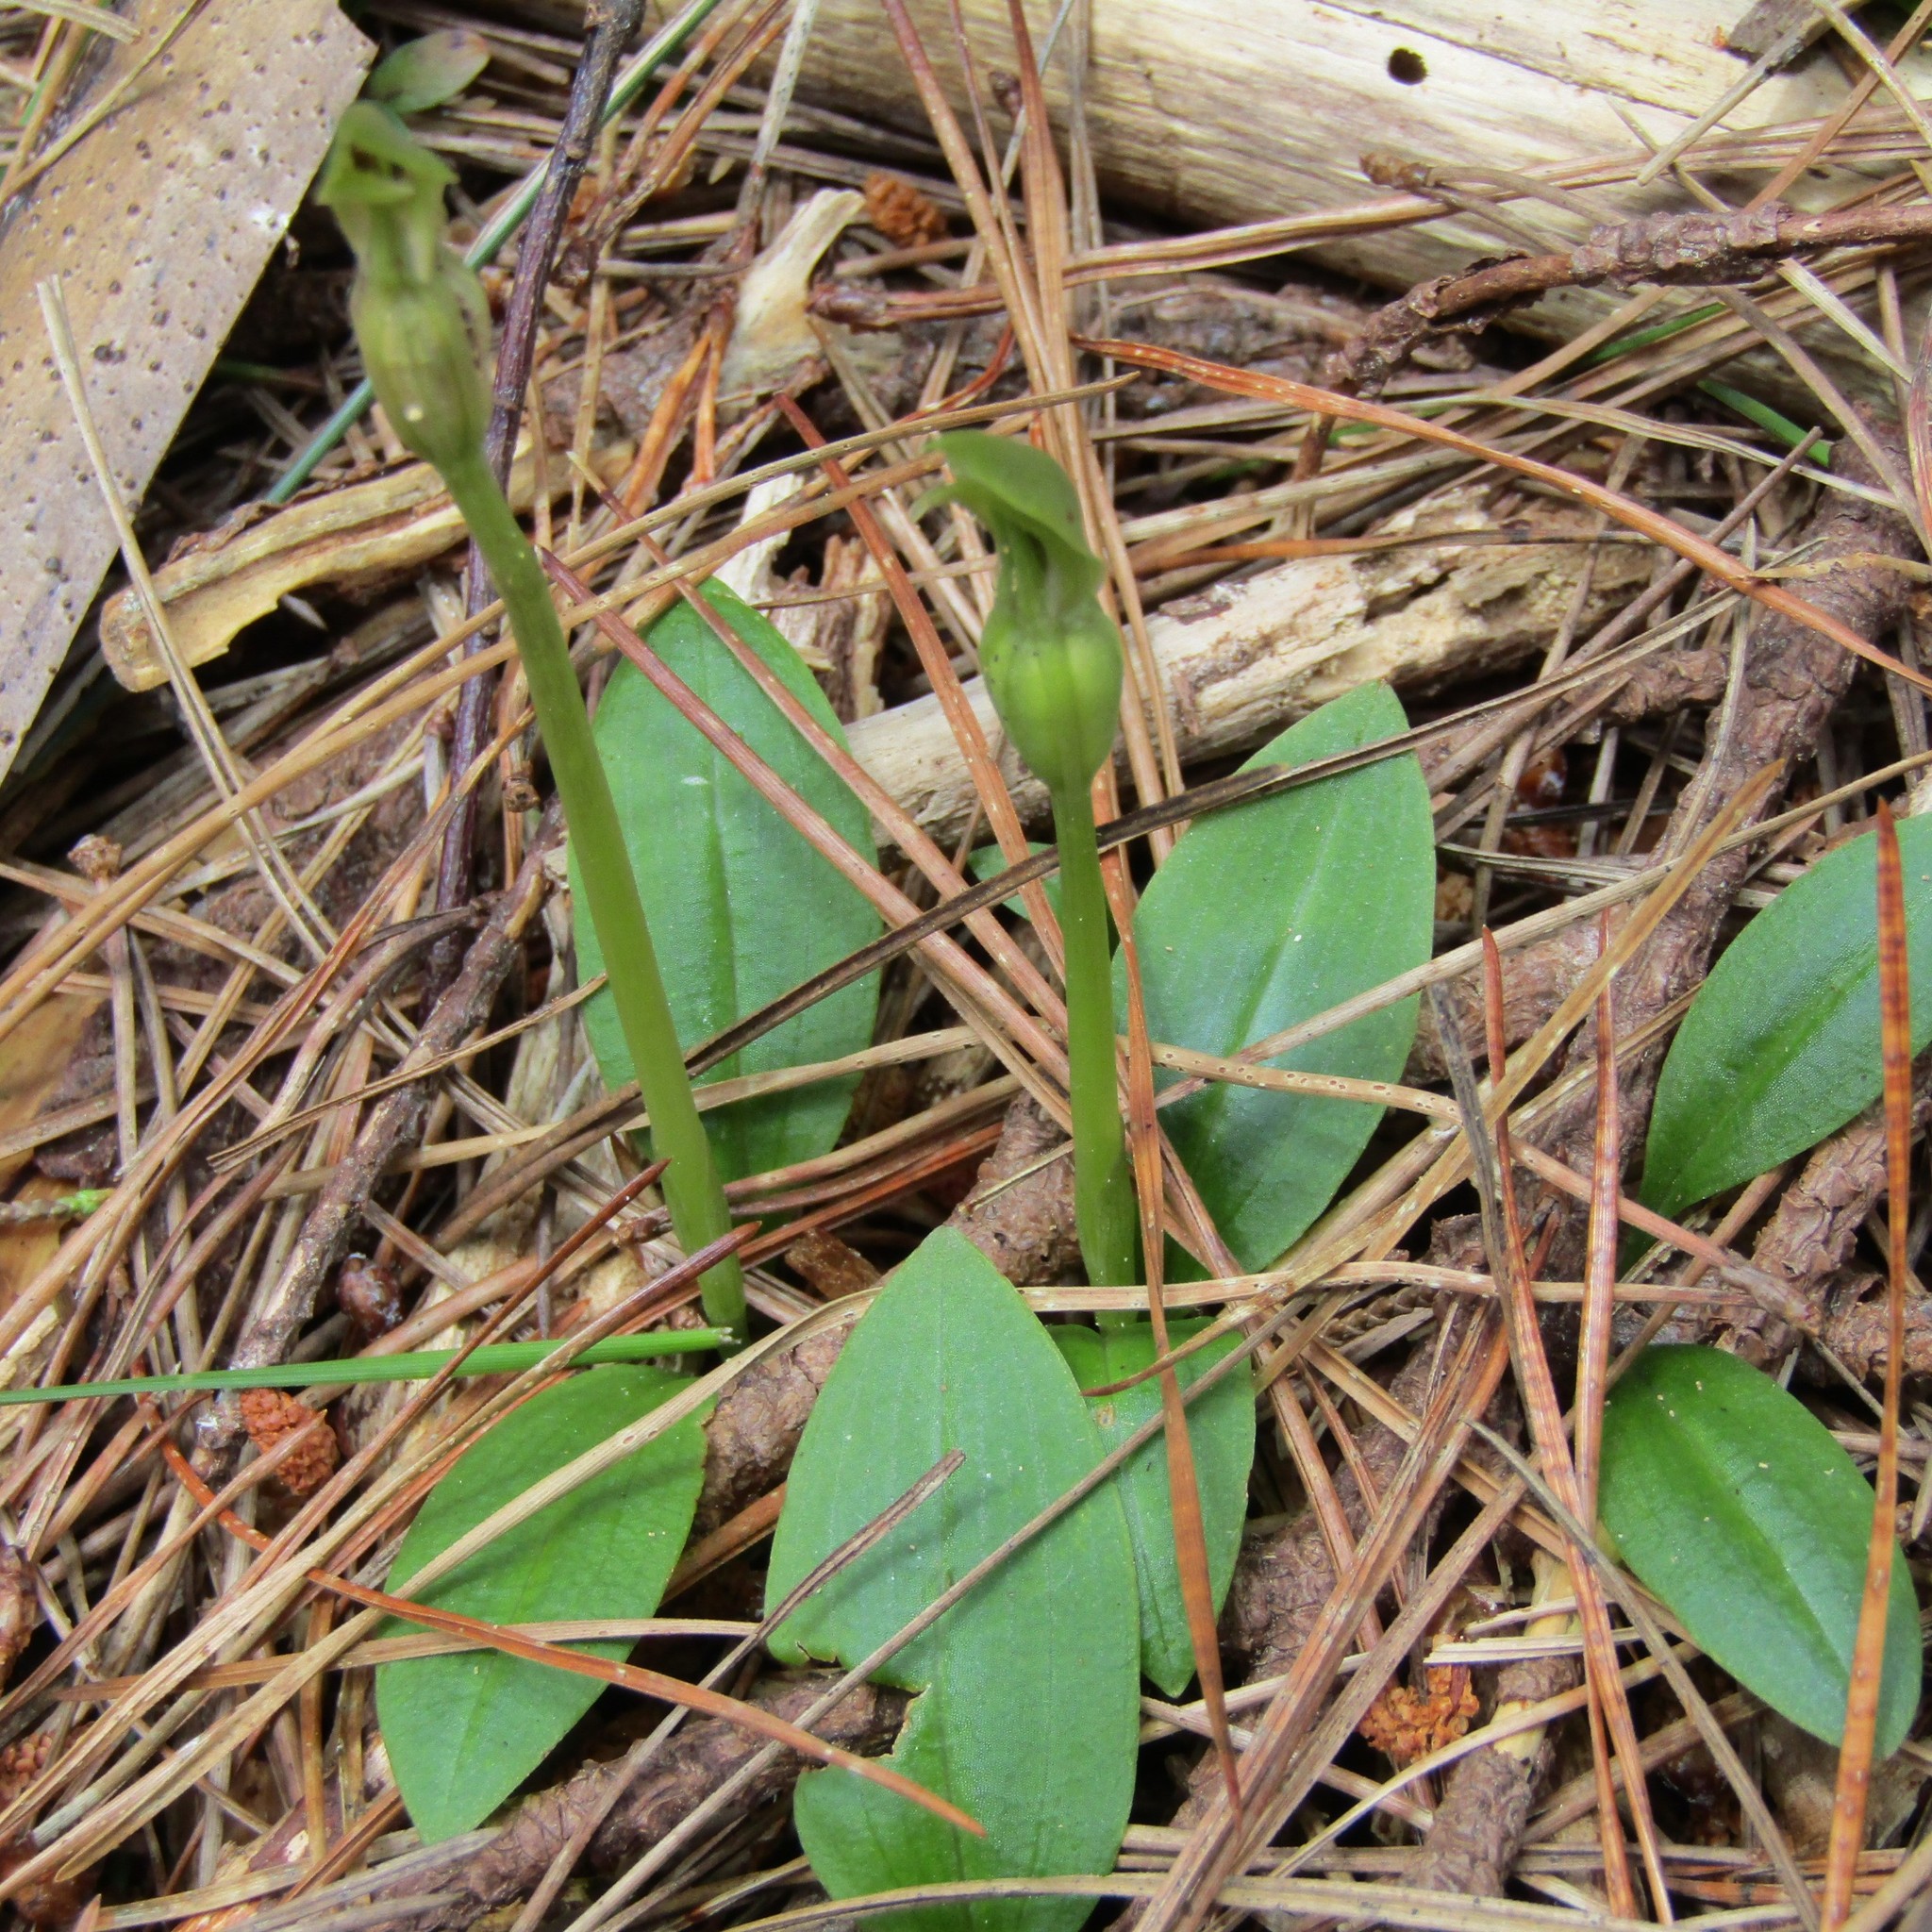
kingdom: Plantae
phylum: Tracheophyta
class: Liliopsida
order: Asparagales
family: Orchidaceae
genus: Chiloglottis
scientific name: Chiloglottis cornuta
